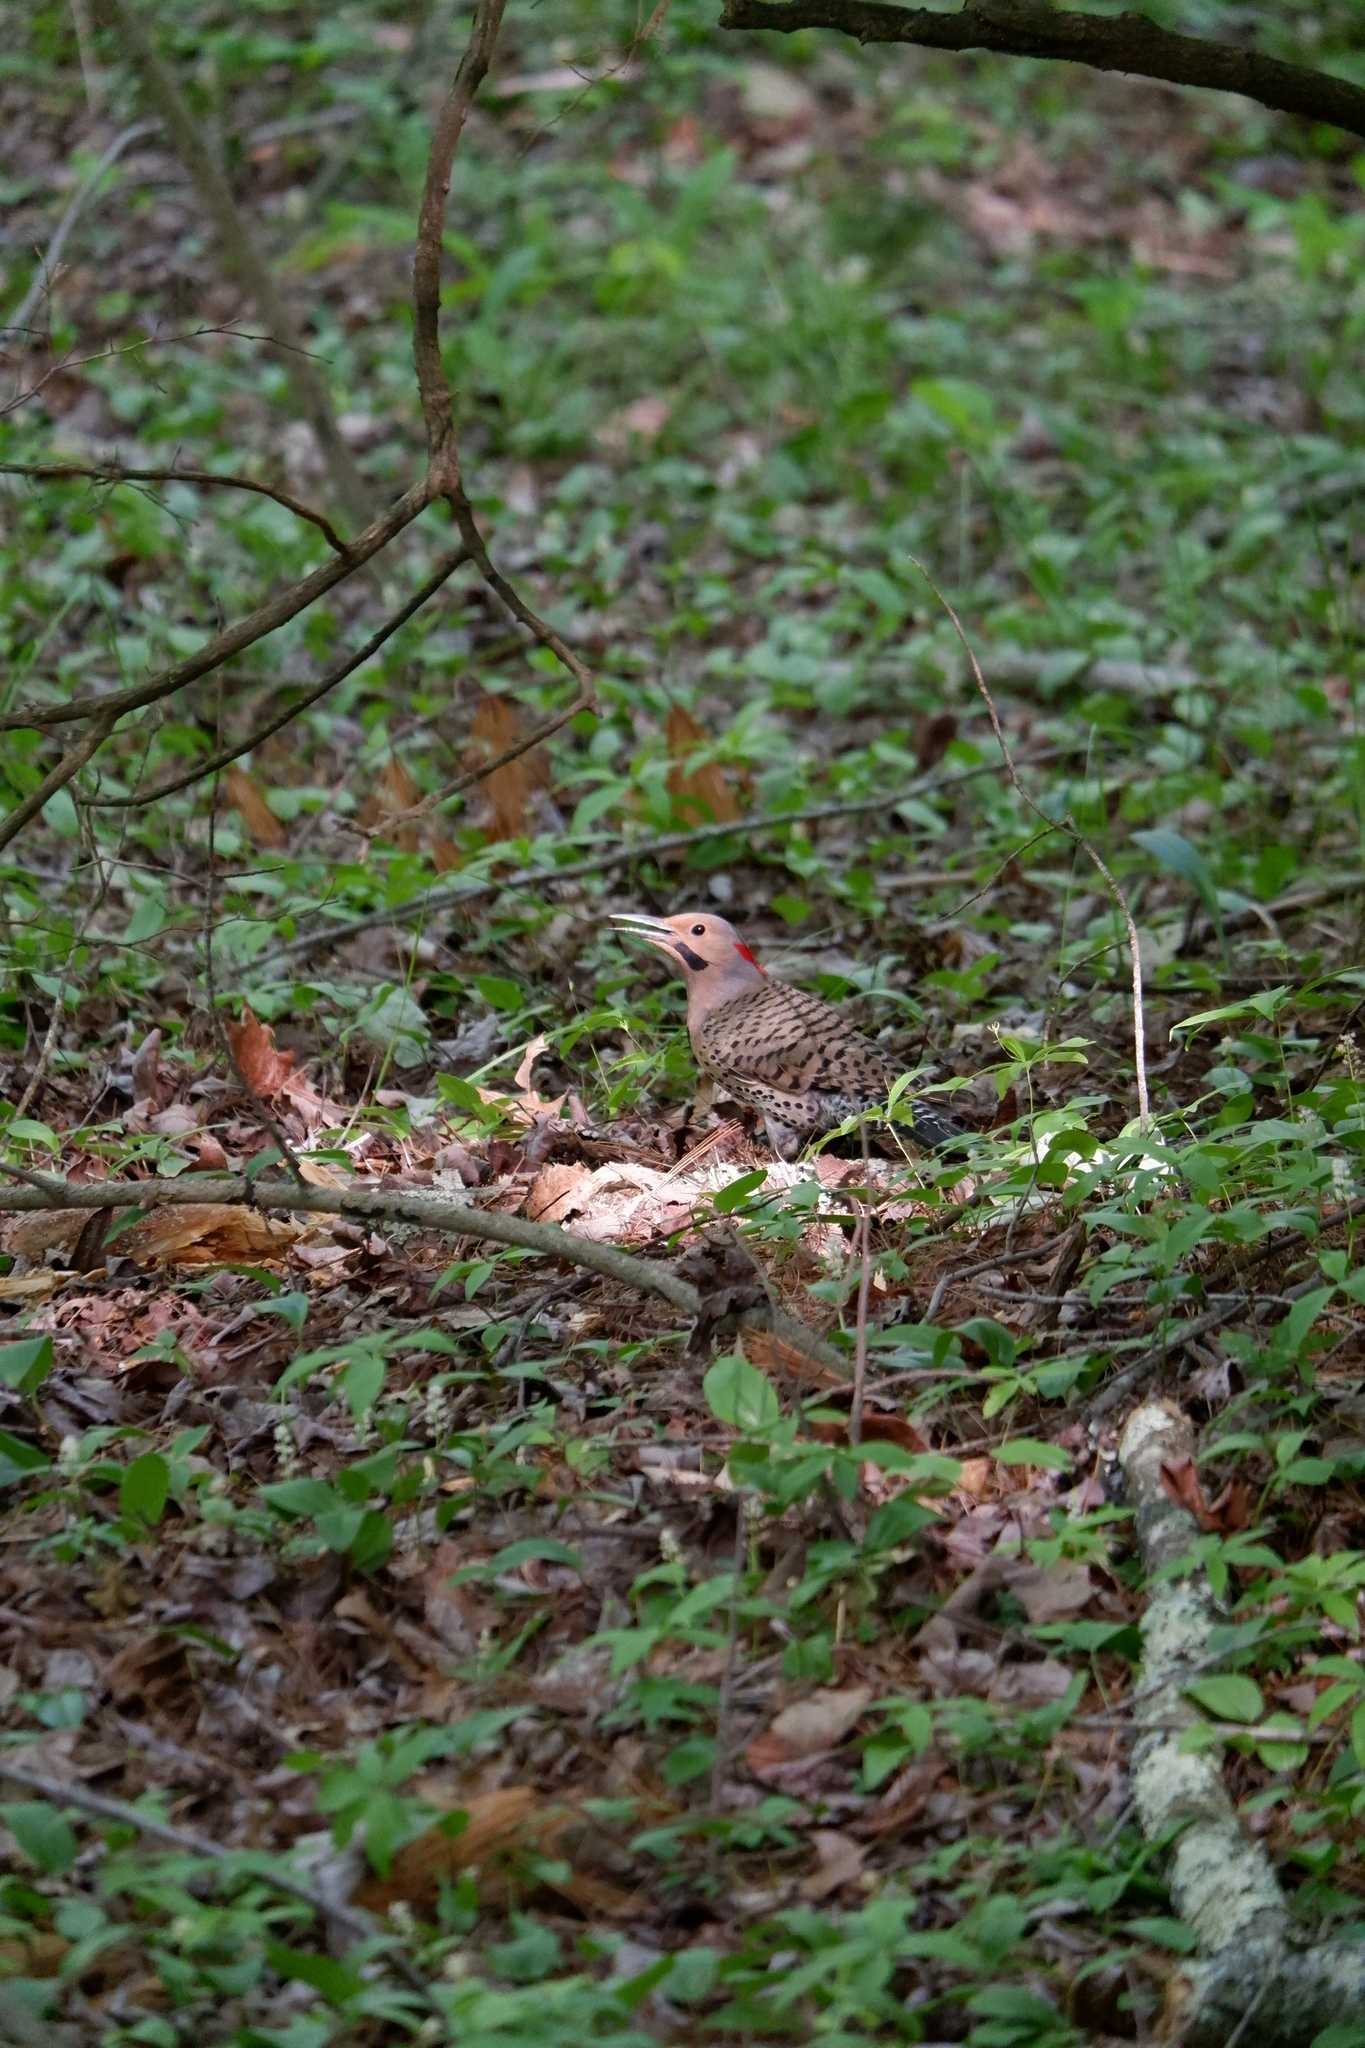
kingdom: Animalia
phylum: Chordata
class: Aves
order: Piciformes
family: Picidae
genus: Colaptes
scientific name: Colaptes auratus
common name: Northern flicker
